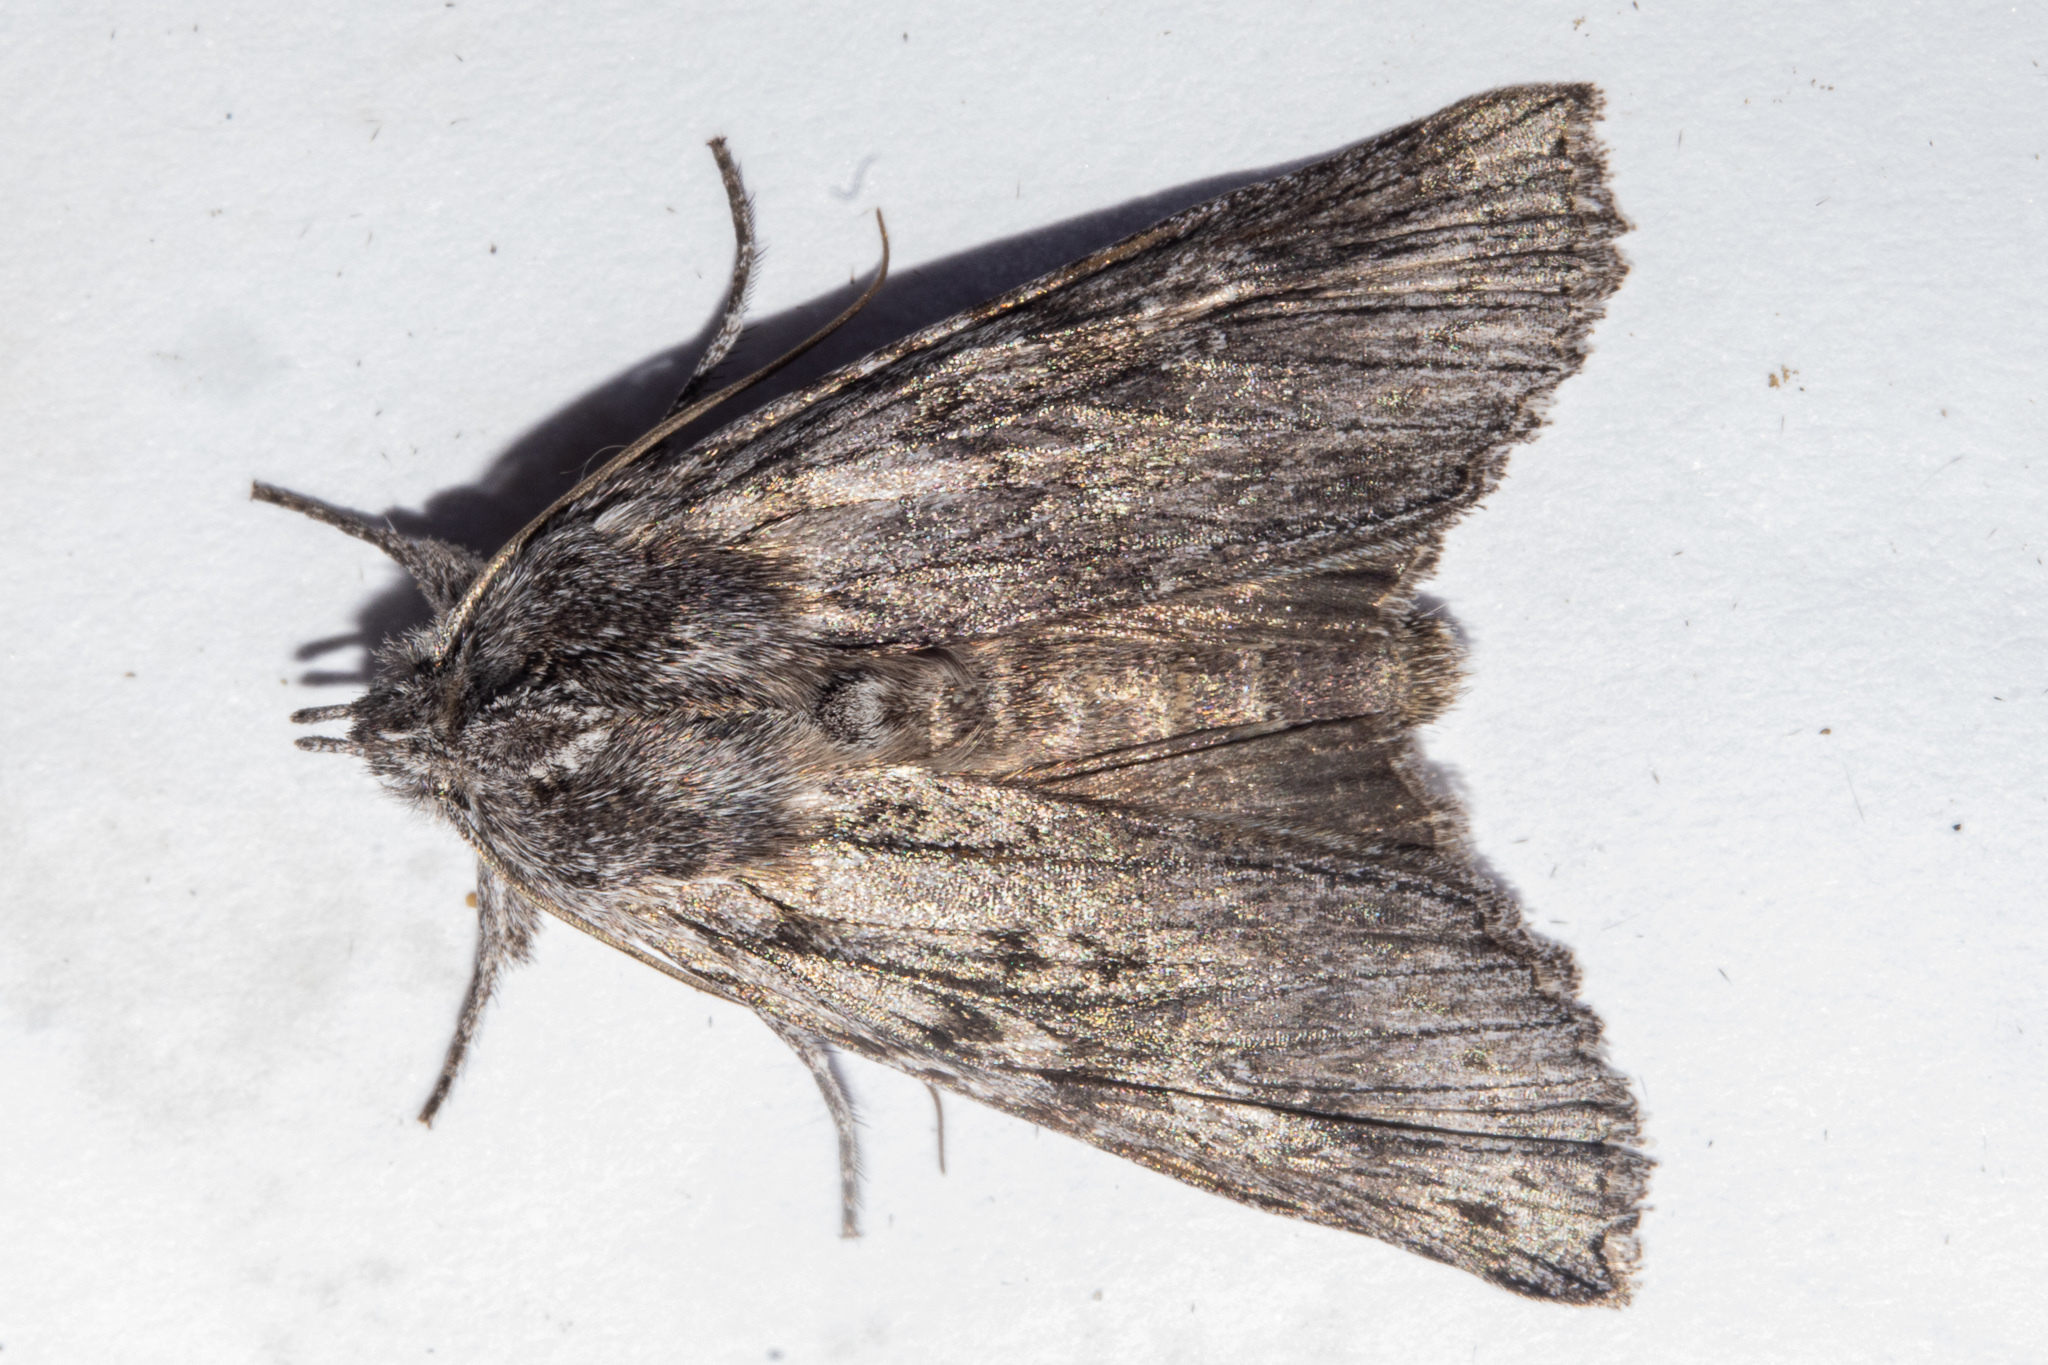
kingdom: Animalia
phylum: Arthropoda
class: Insecta
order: Lepidoptera
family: Noctuidae
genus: Physetica
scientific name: Physetica phricias
